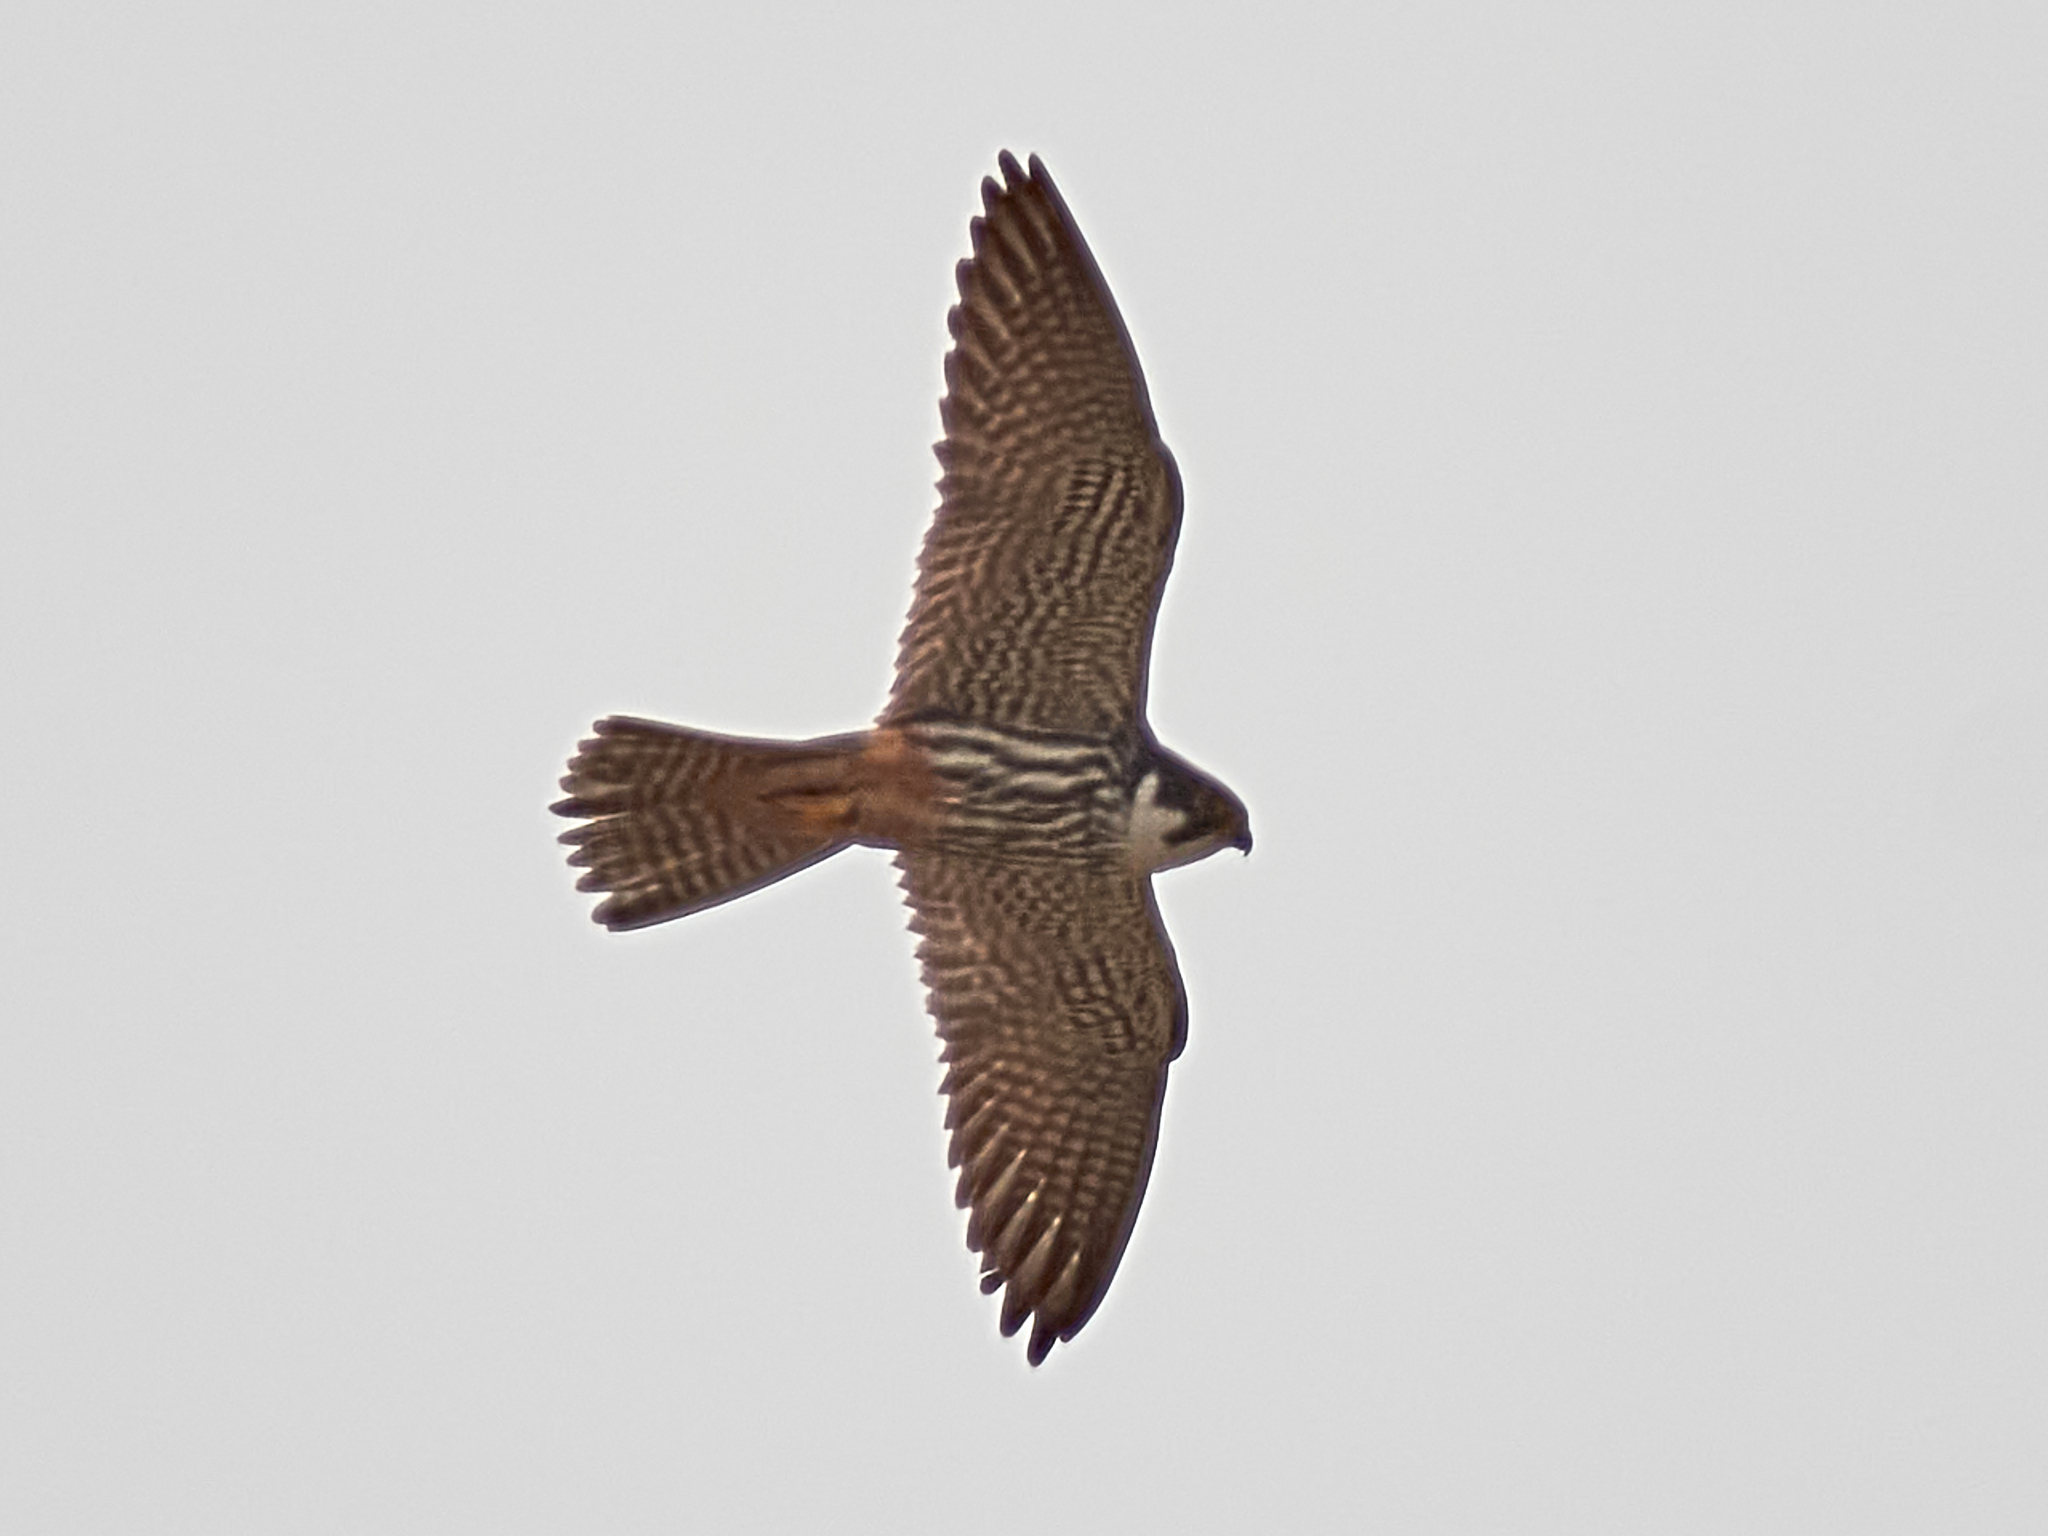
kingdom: Animalia
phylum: Chordata
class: Aves
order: Falconiformes
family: Falconidae
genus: Falco
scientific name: Falco subbuteo
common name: Eurasian hobby
